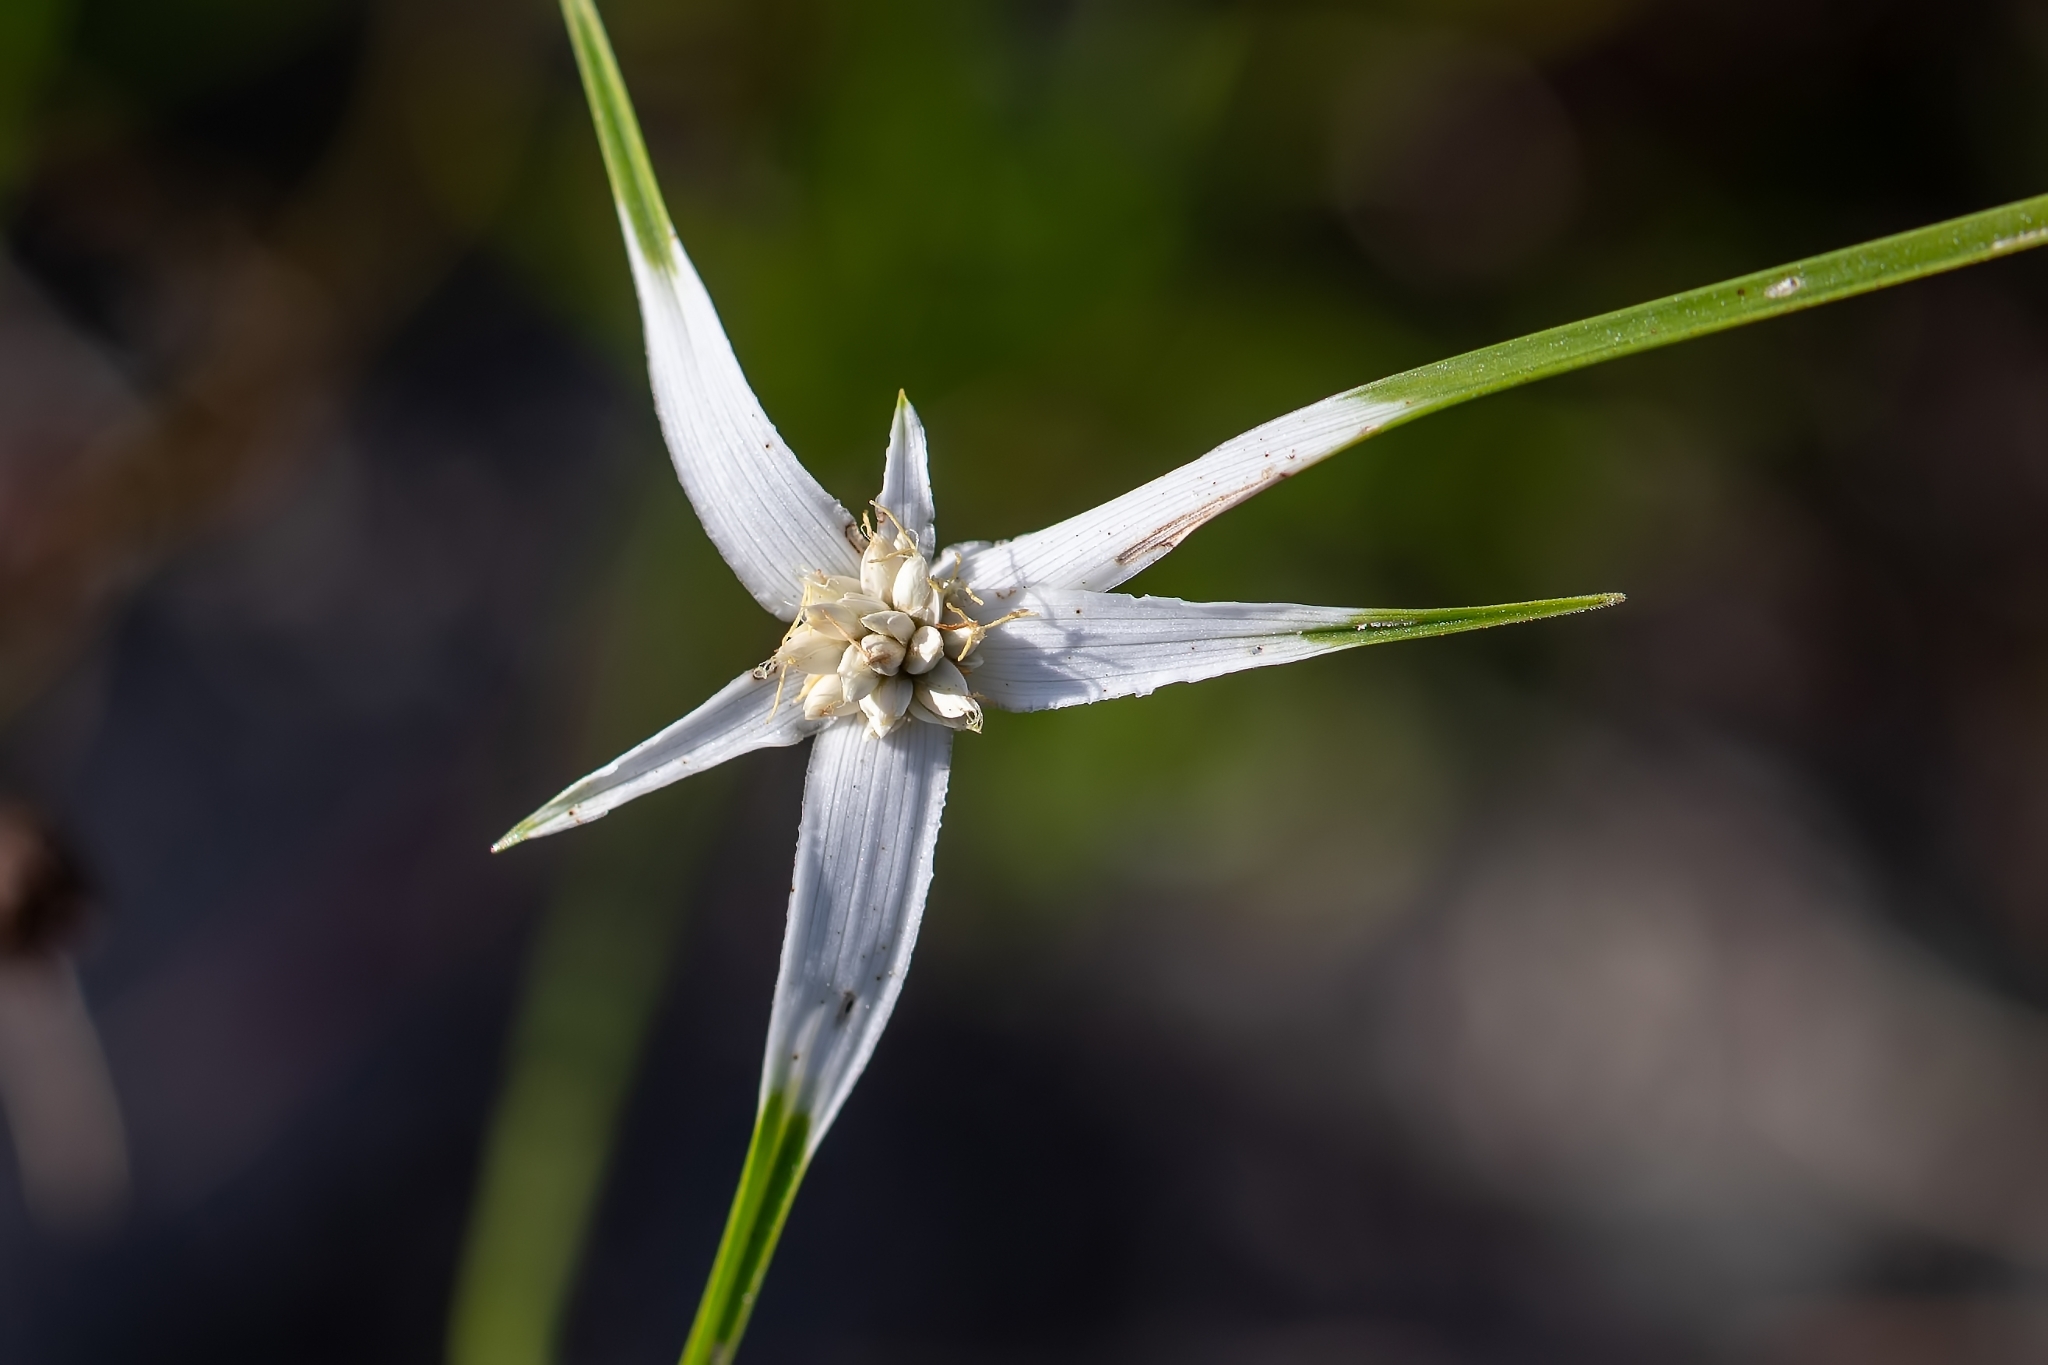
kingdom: Plantae
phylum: Tracheophyta
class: Liliopsida
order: Poales
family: Cyperaceae
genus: Rhynchospora
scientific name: Rhynchospora colorata
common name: Star sedge
